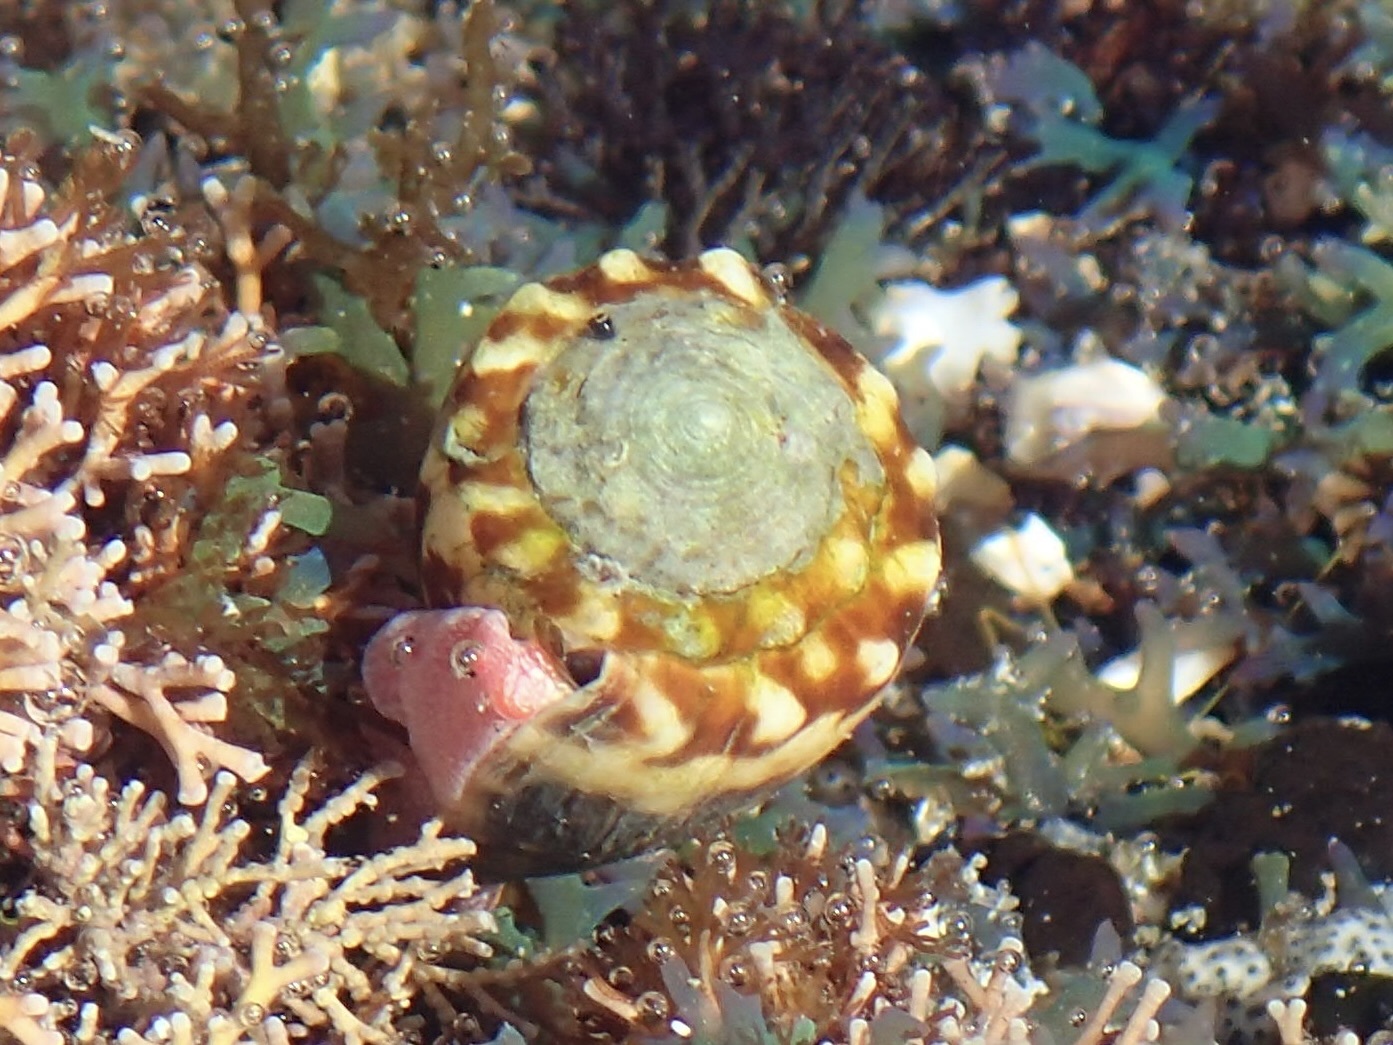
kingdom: Animalia
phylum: Mollusca
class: Gastropoda
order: Neogastropoda
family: Conidae
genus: Conus
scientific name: Conus nux
